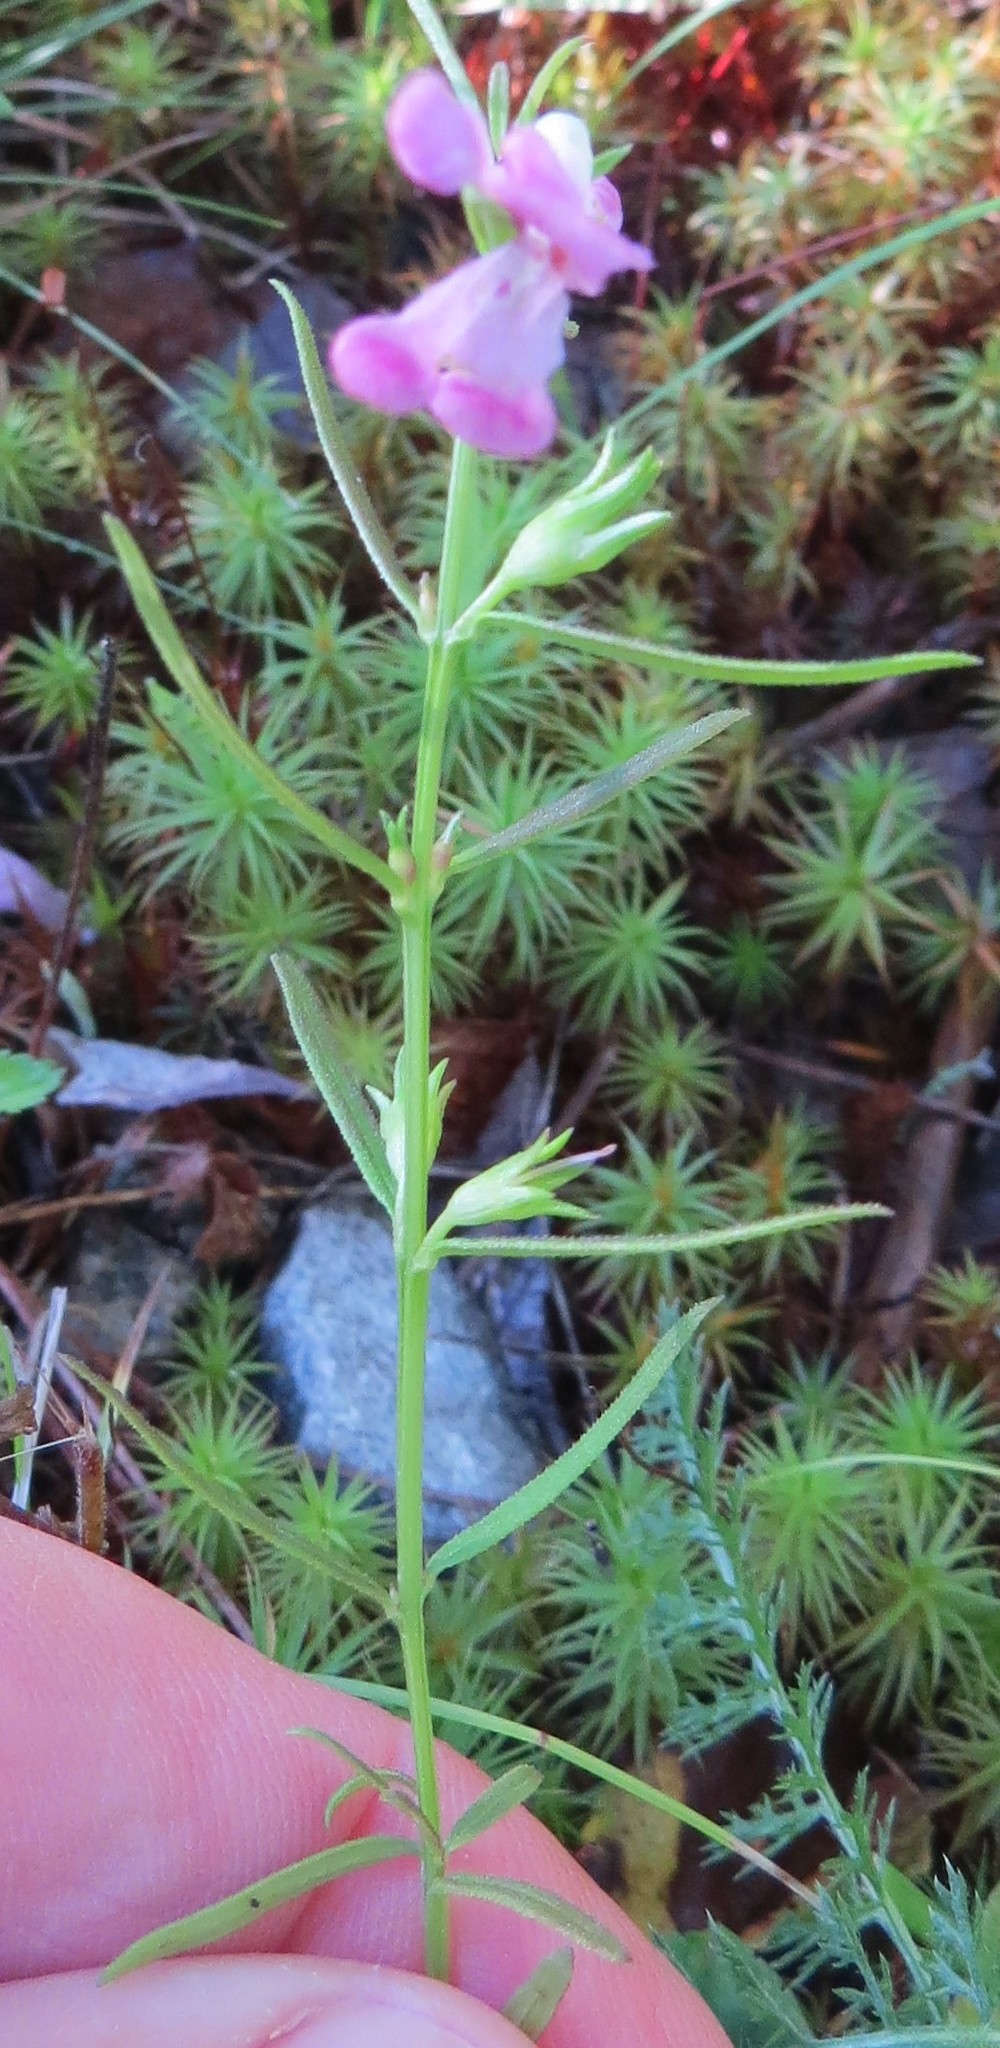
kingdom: Plantae
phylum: Tracheophyta
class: Magnoliopsida
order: Lamiales
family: Orobanchaceae
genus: Agalinis
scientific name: Agalinis neoscotica
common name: Middleton false foxglove
